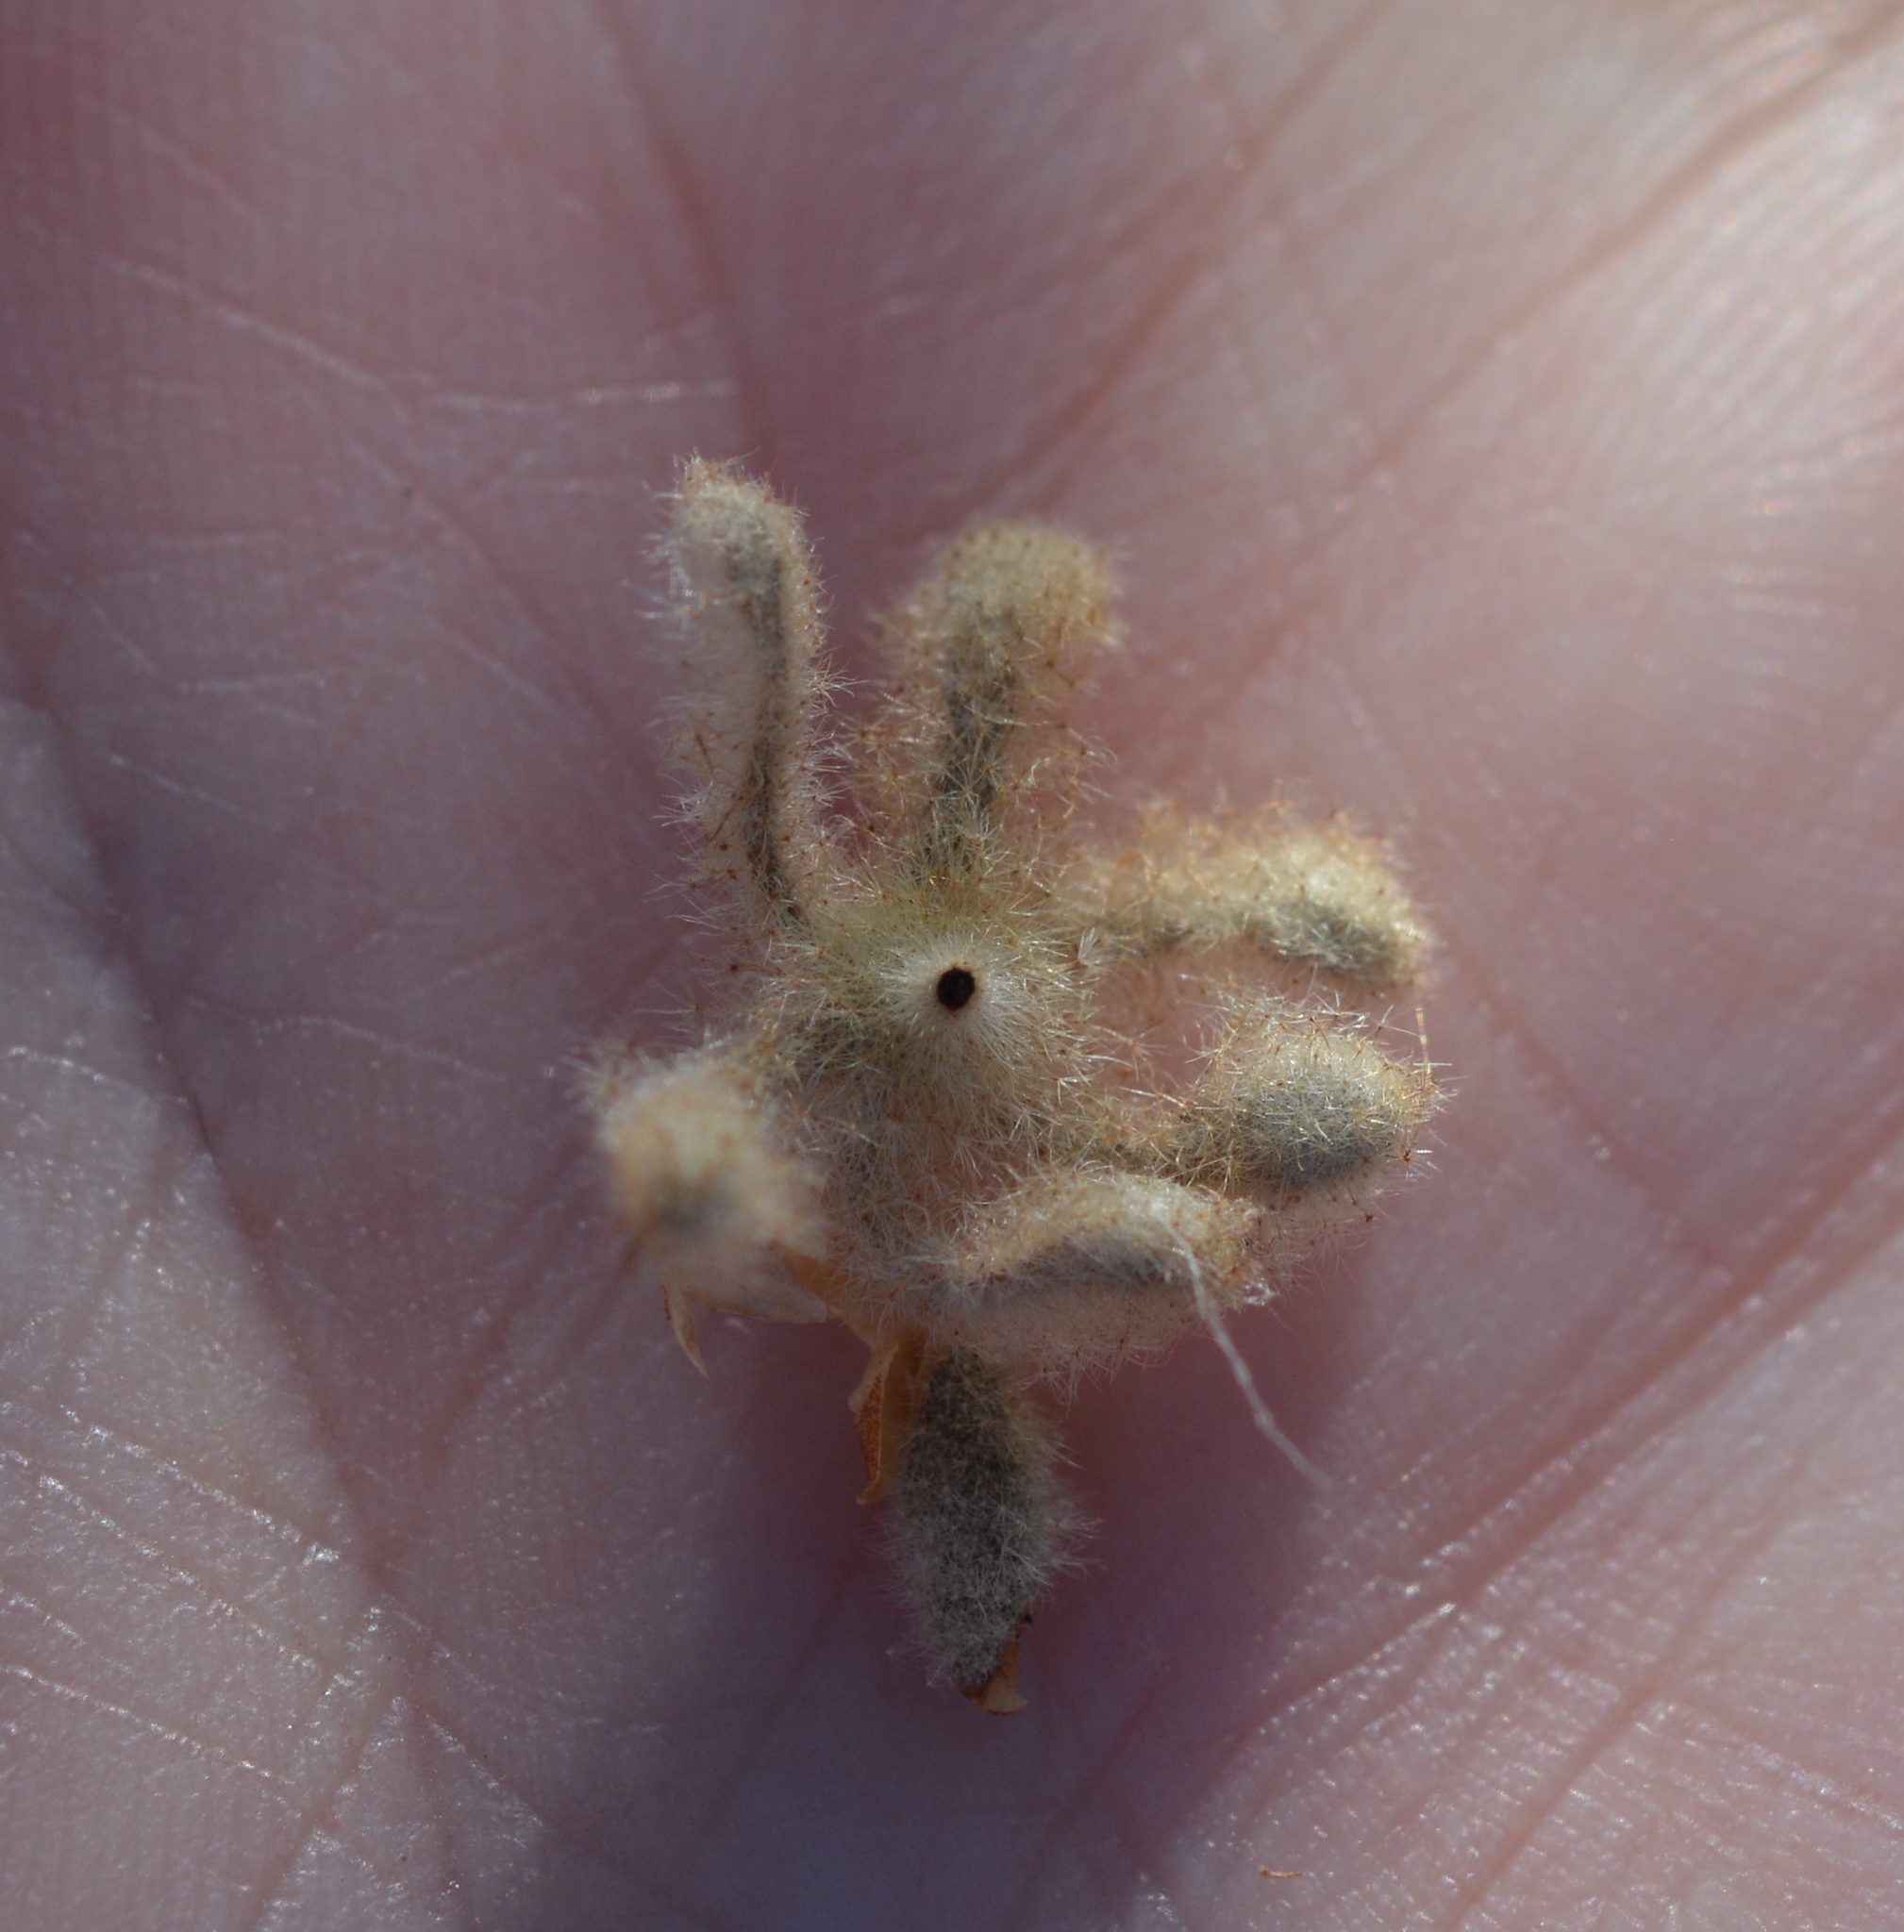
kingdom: Plantae
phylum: Tracheophyta
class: Magnoliopsida
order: Malpighiales
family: Euphorbiaceae
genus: Croton
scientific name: Croton lindheimeri
